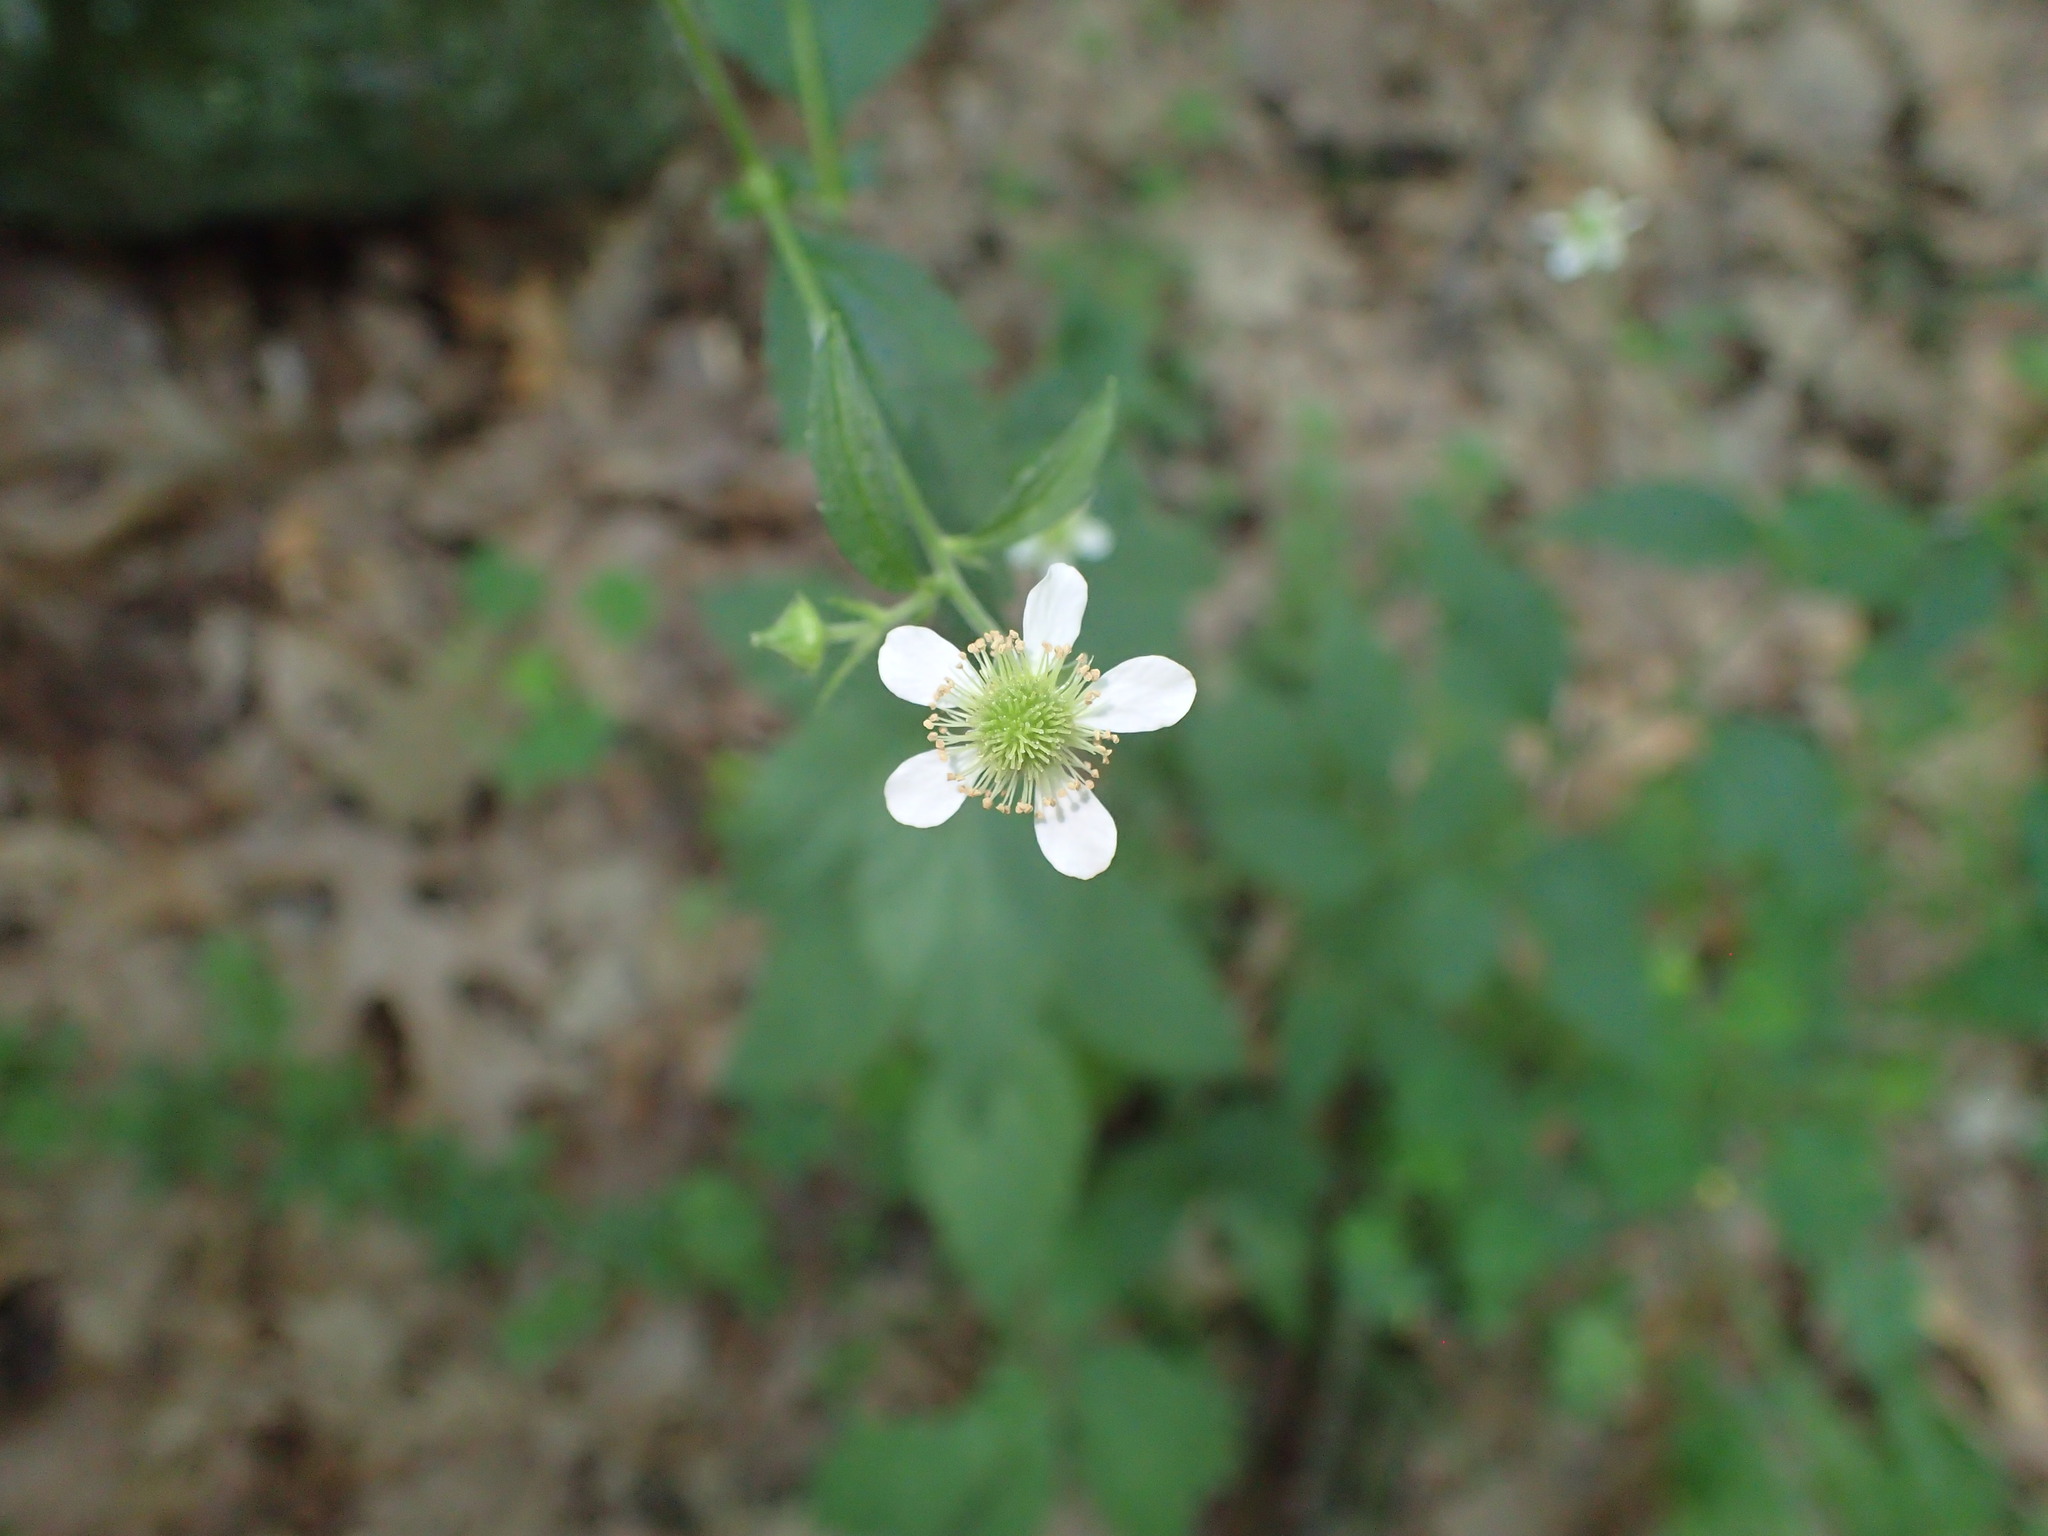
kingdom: Plantae
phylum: Tracheophyta
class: Magnoliopsida
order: Rosales
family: Rosaceae
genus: Geum
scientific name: Geum canadense
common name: White avens
